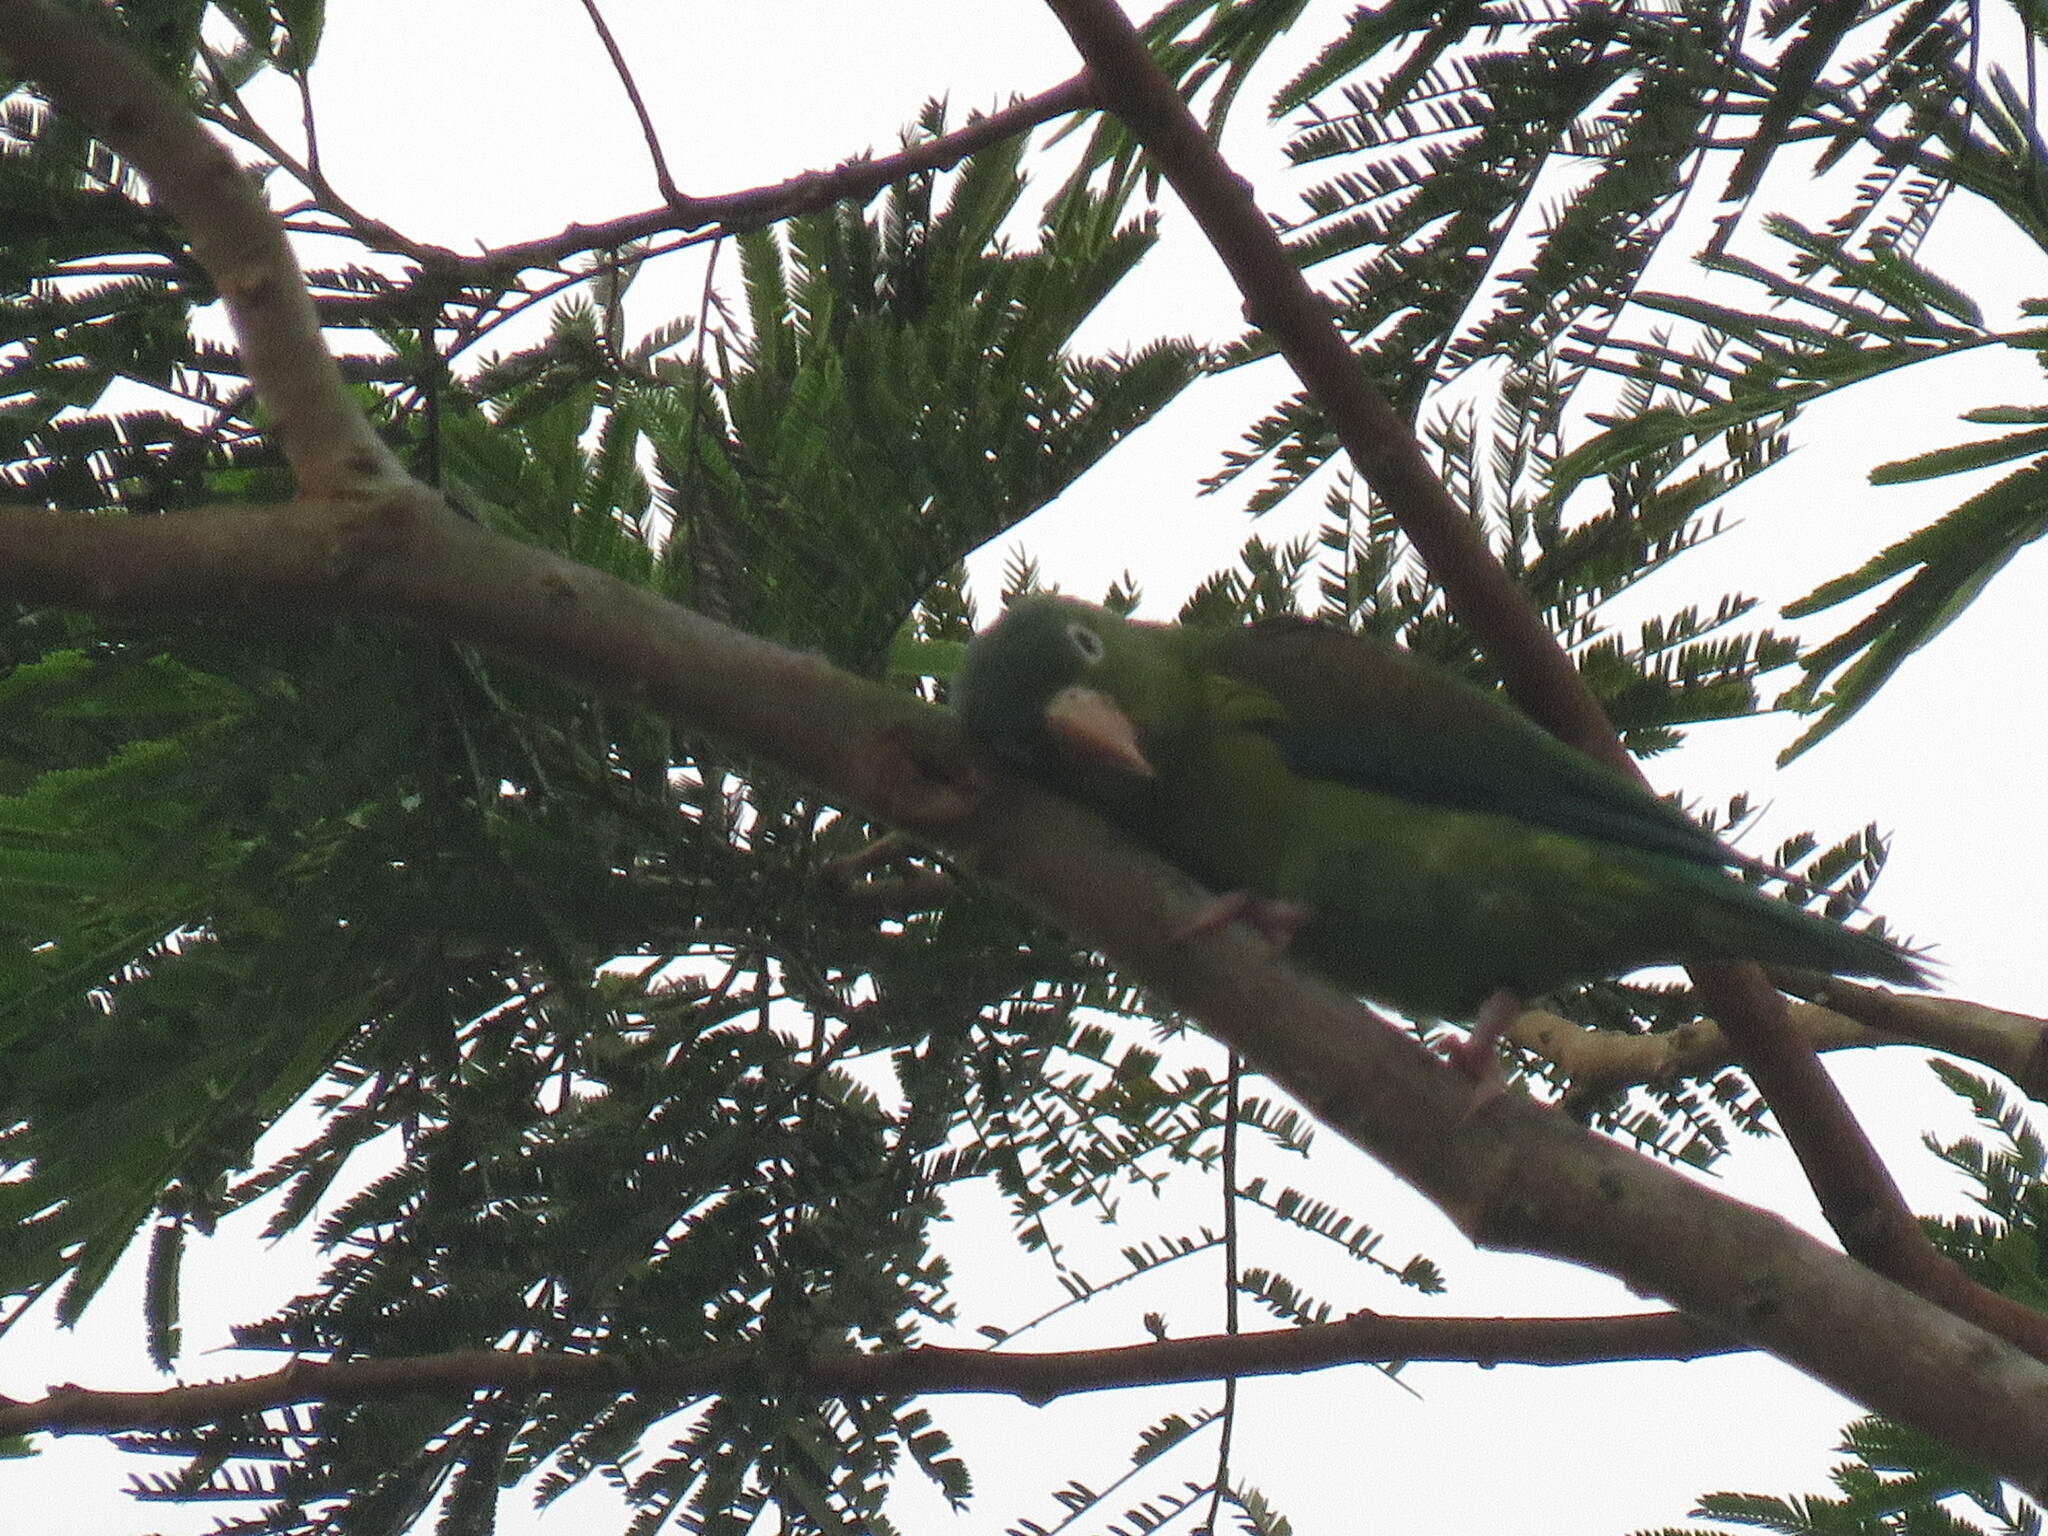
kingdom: Animalia
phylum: Chordata
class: Aves
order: Psittaciformes
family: Psittacidae
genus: Brotogeris
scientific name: Brotogeris jugularis
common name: Orange-chinned parakeet
